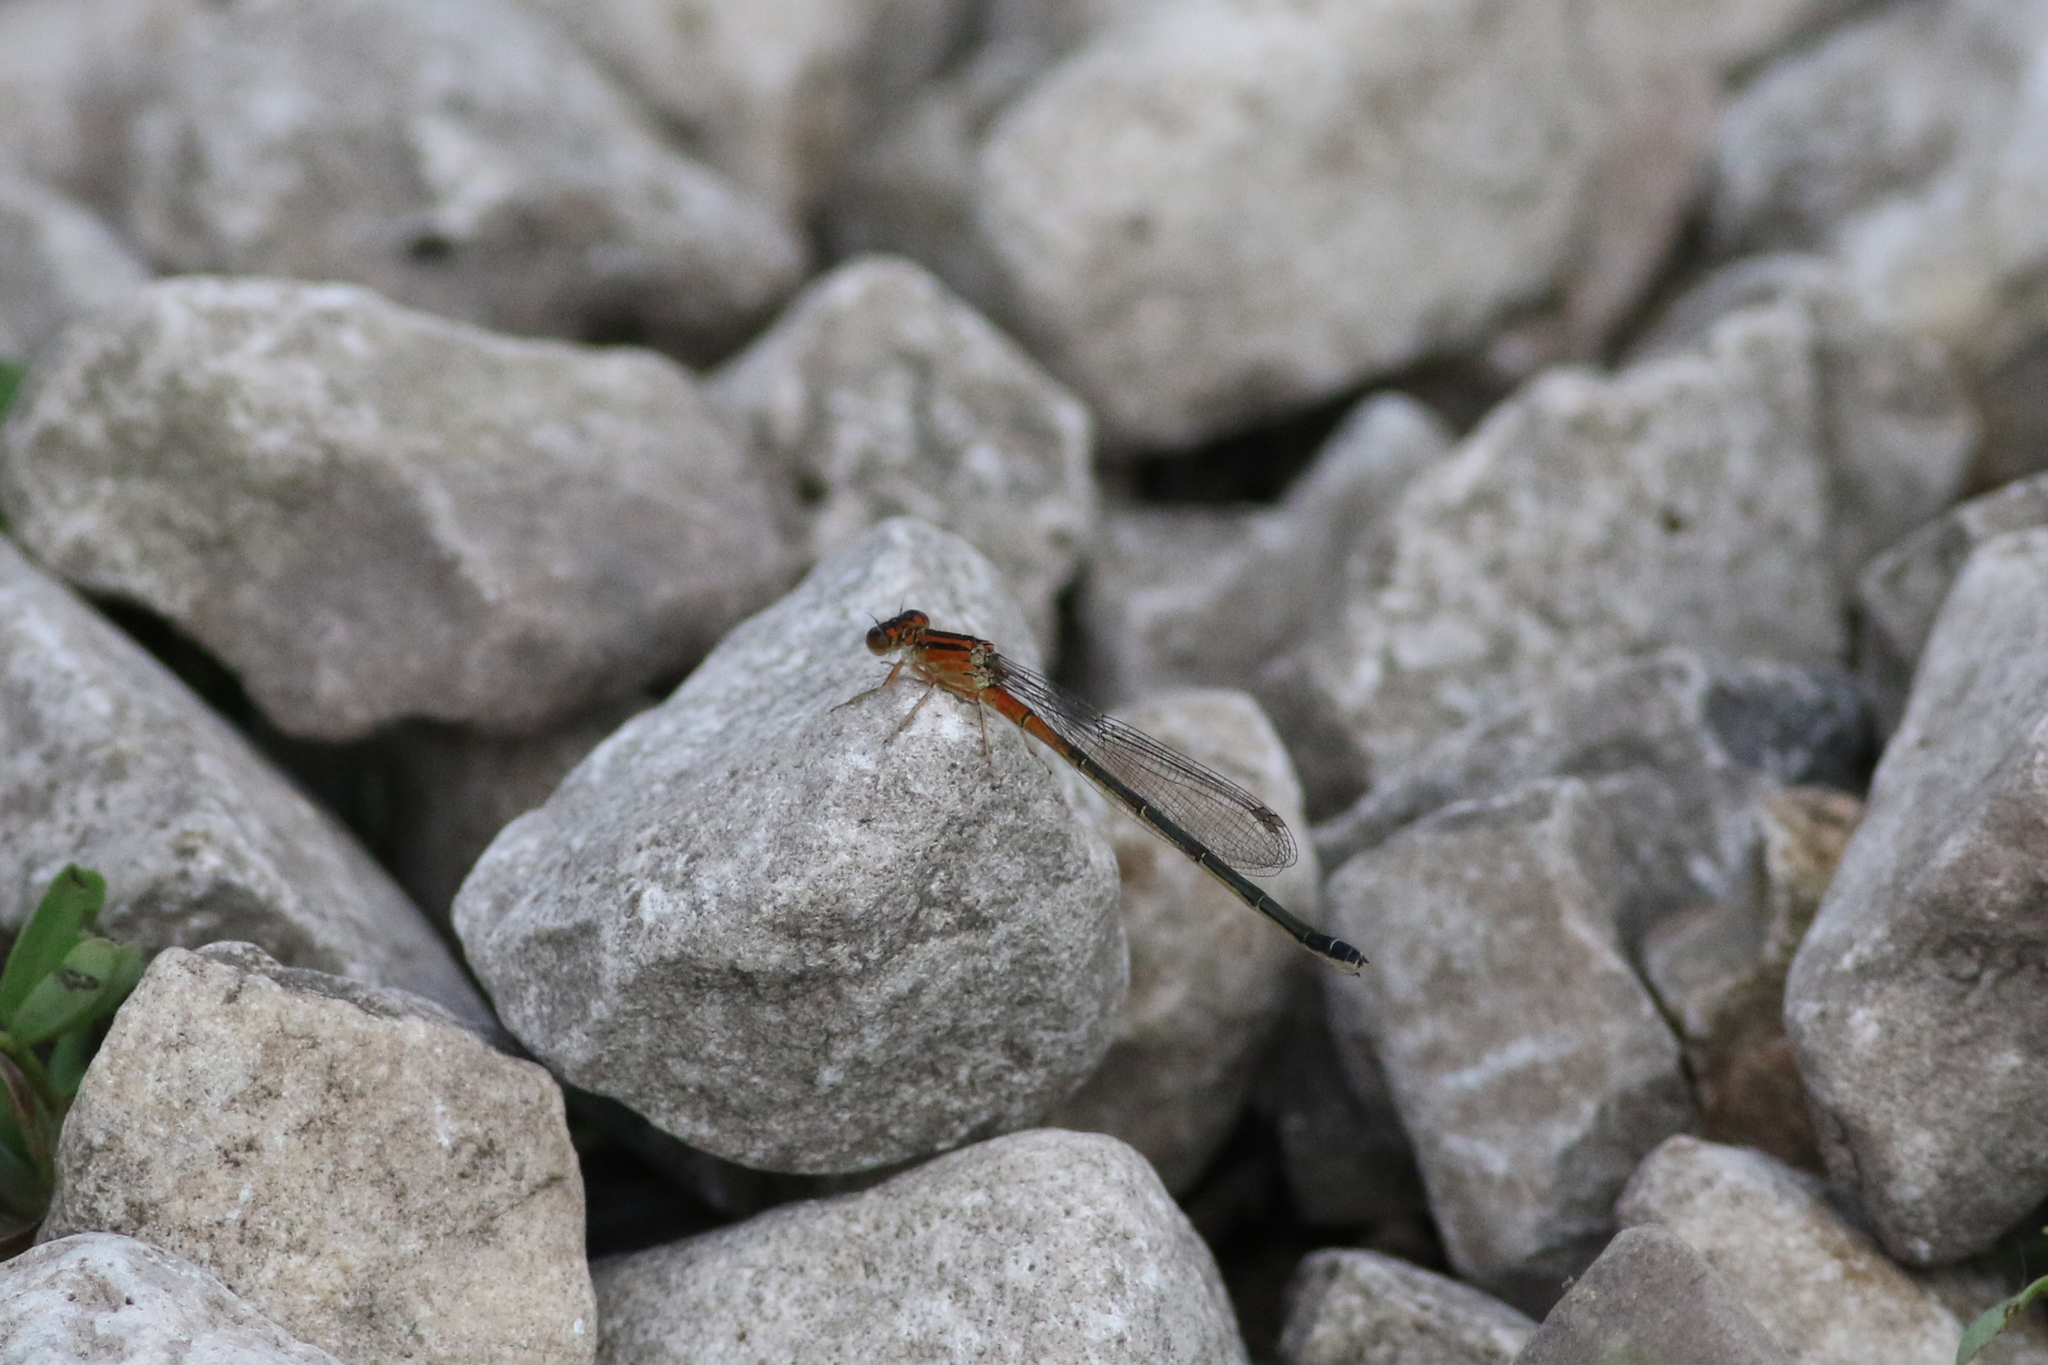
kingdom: Animalia
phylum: Arthropoda
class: Insecta
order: Odonata
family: Coenagrionidae
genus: Ischnura
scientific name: Ischnura verticalis
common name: Eastern forktail
